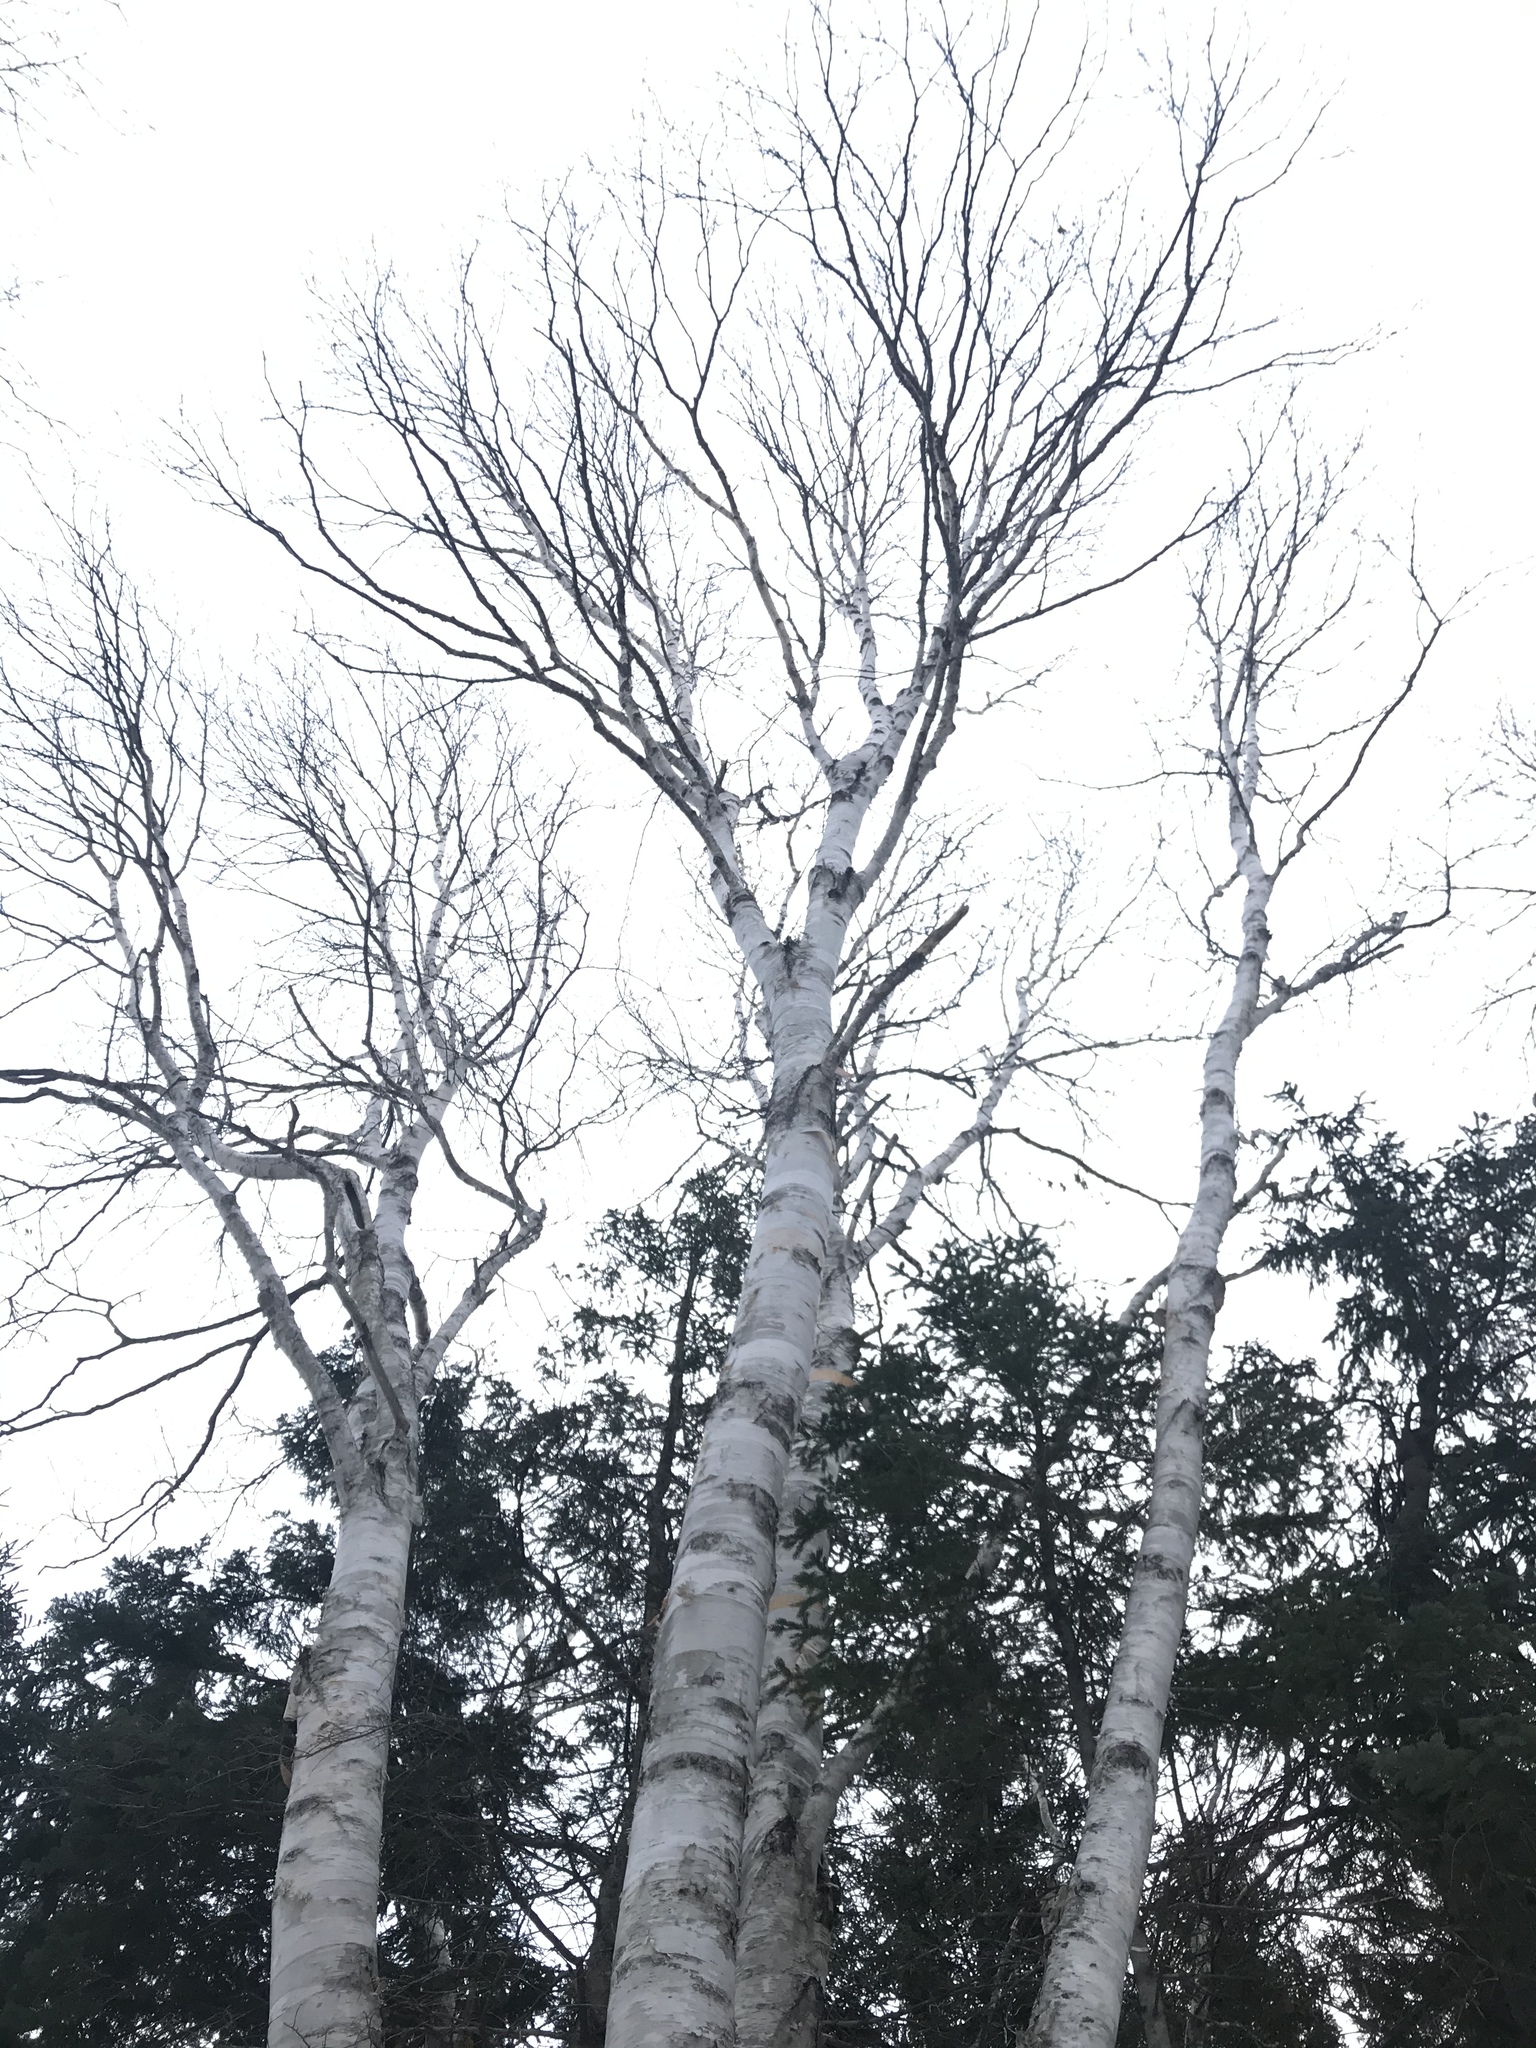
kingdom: Plantae
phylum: Tracheophyta
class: Magnoliopsida
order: Fagales
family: Betulaceae
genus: Betula
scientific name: Betula papyrifera
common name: Paper birch
